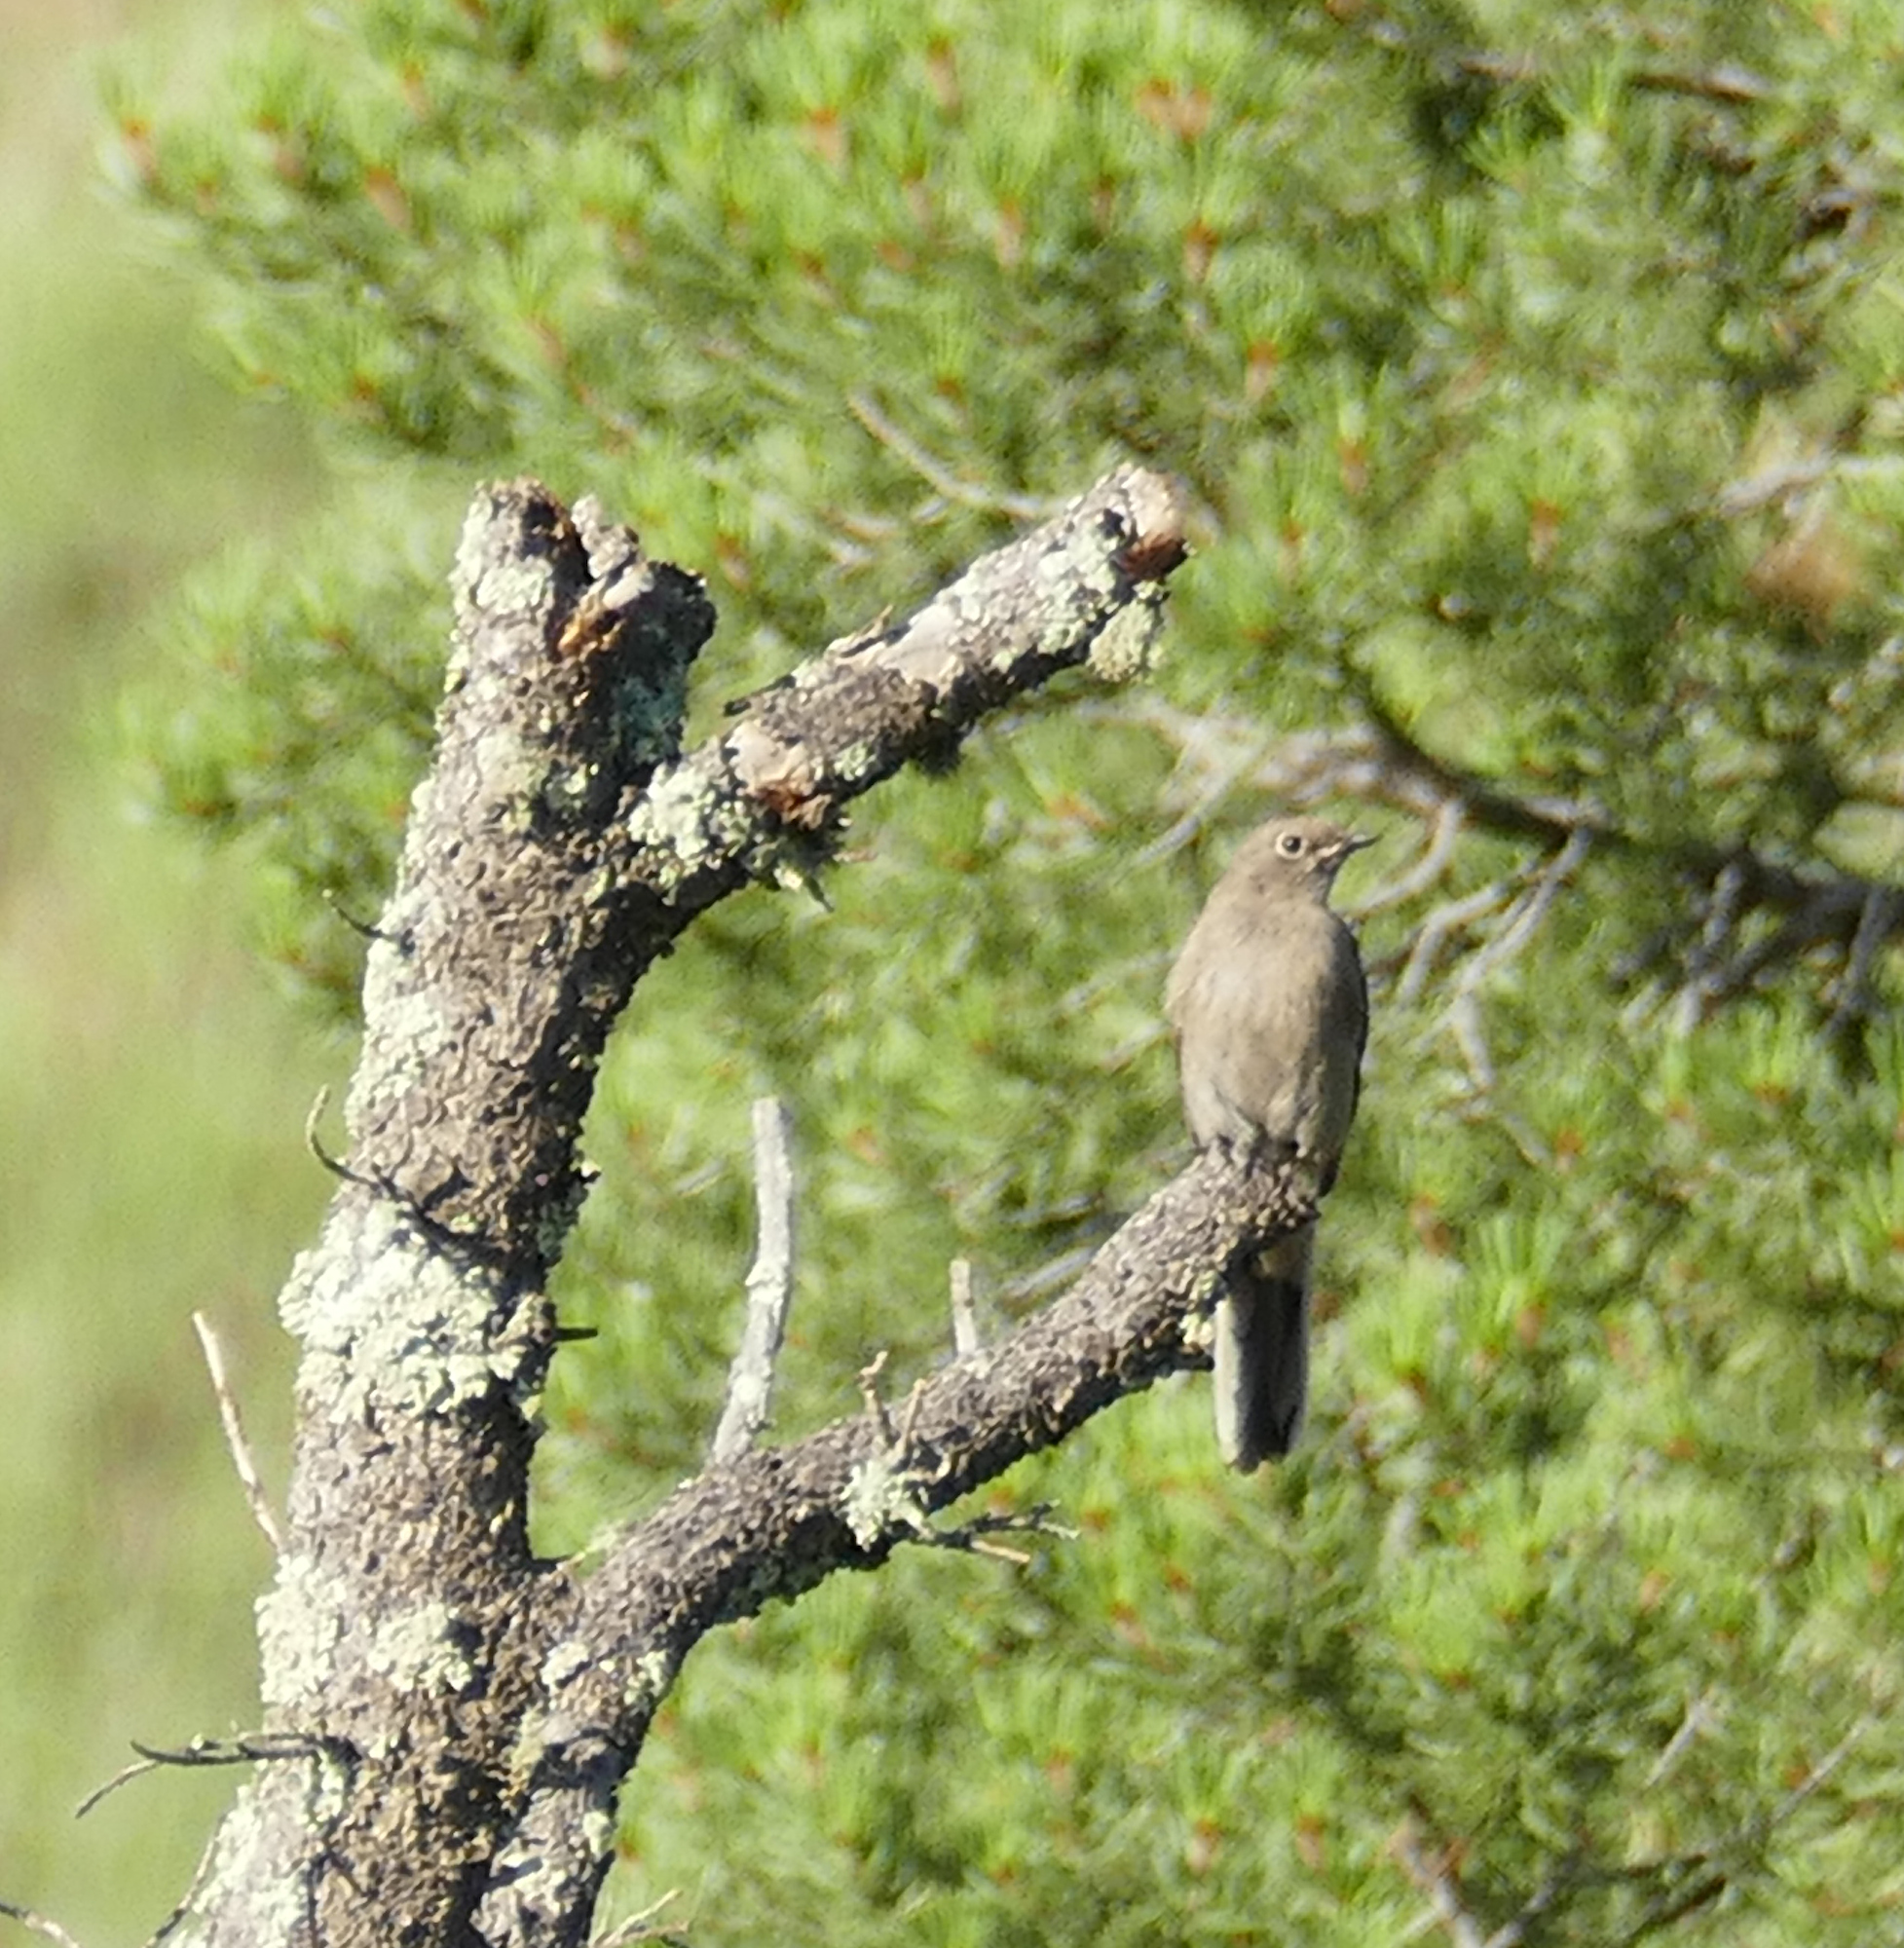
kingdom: Animalia
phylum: Chordata
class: Aves
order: Passeriformes
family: Turdidae
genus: Myadestes
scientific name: Myadestes townsendi
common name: Townsend's solitaire
